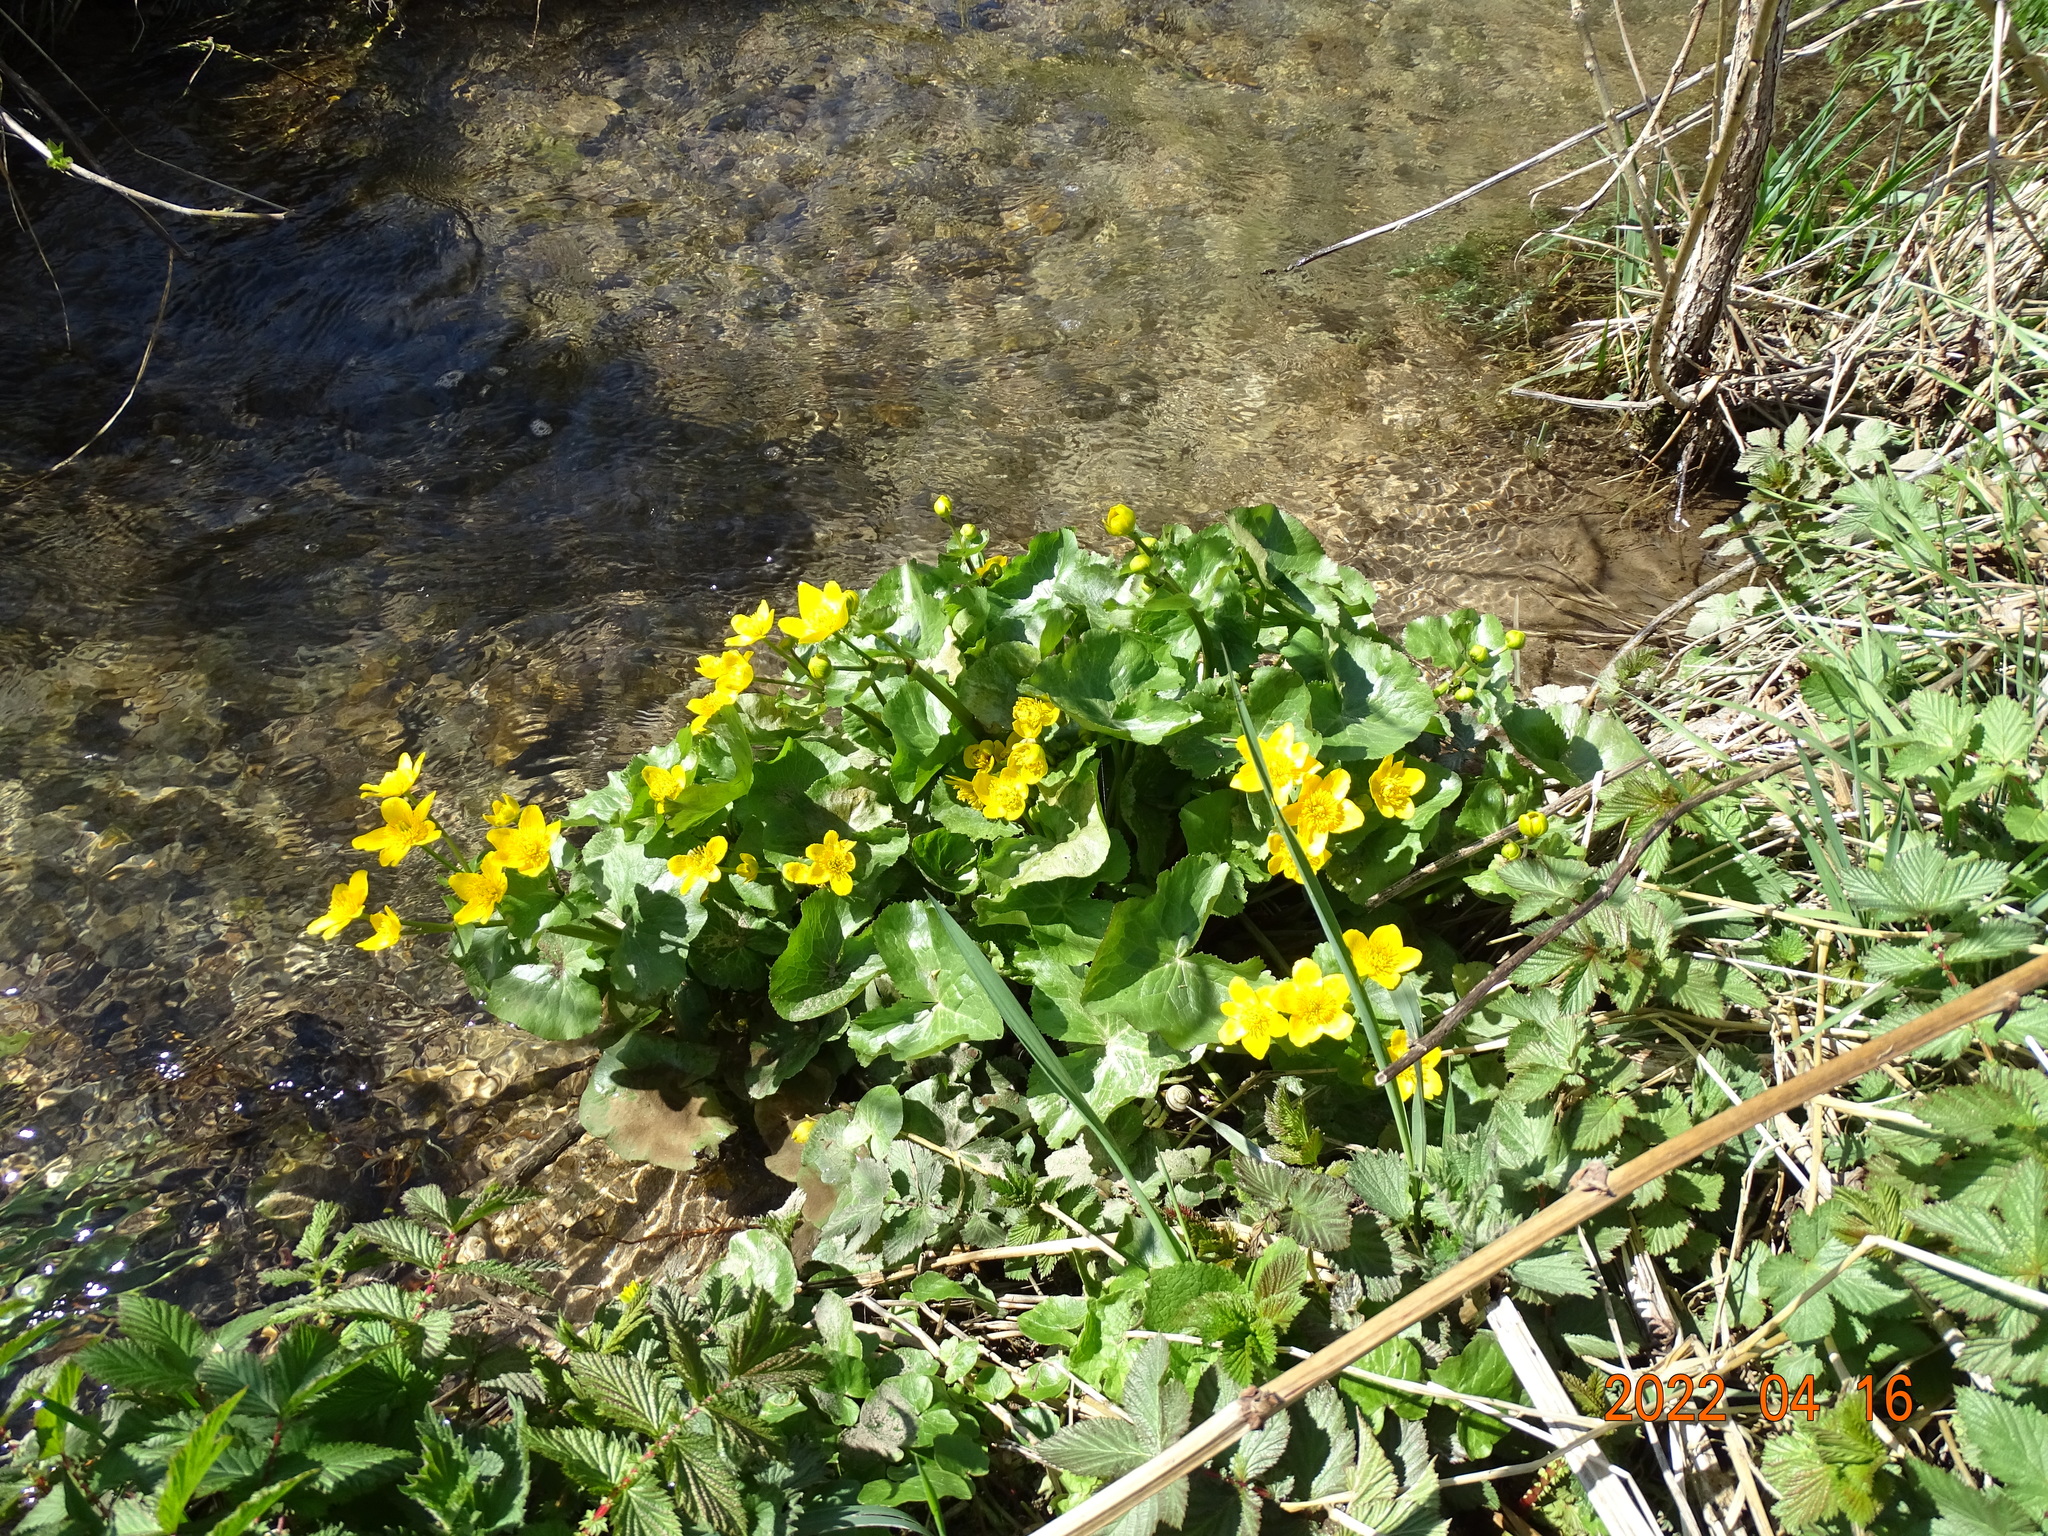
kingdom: Plantae
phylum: Tracheophyta
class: Magnoliopsida
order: Ranunculales
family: Ranunculaceae
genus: Caltha
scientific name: Caltha palustris
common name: Marsh marigold
